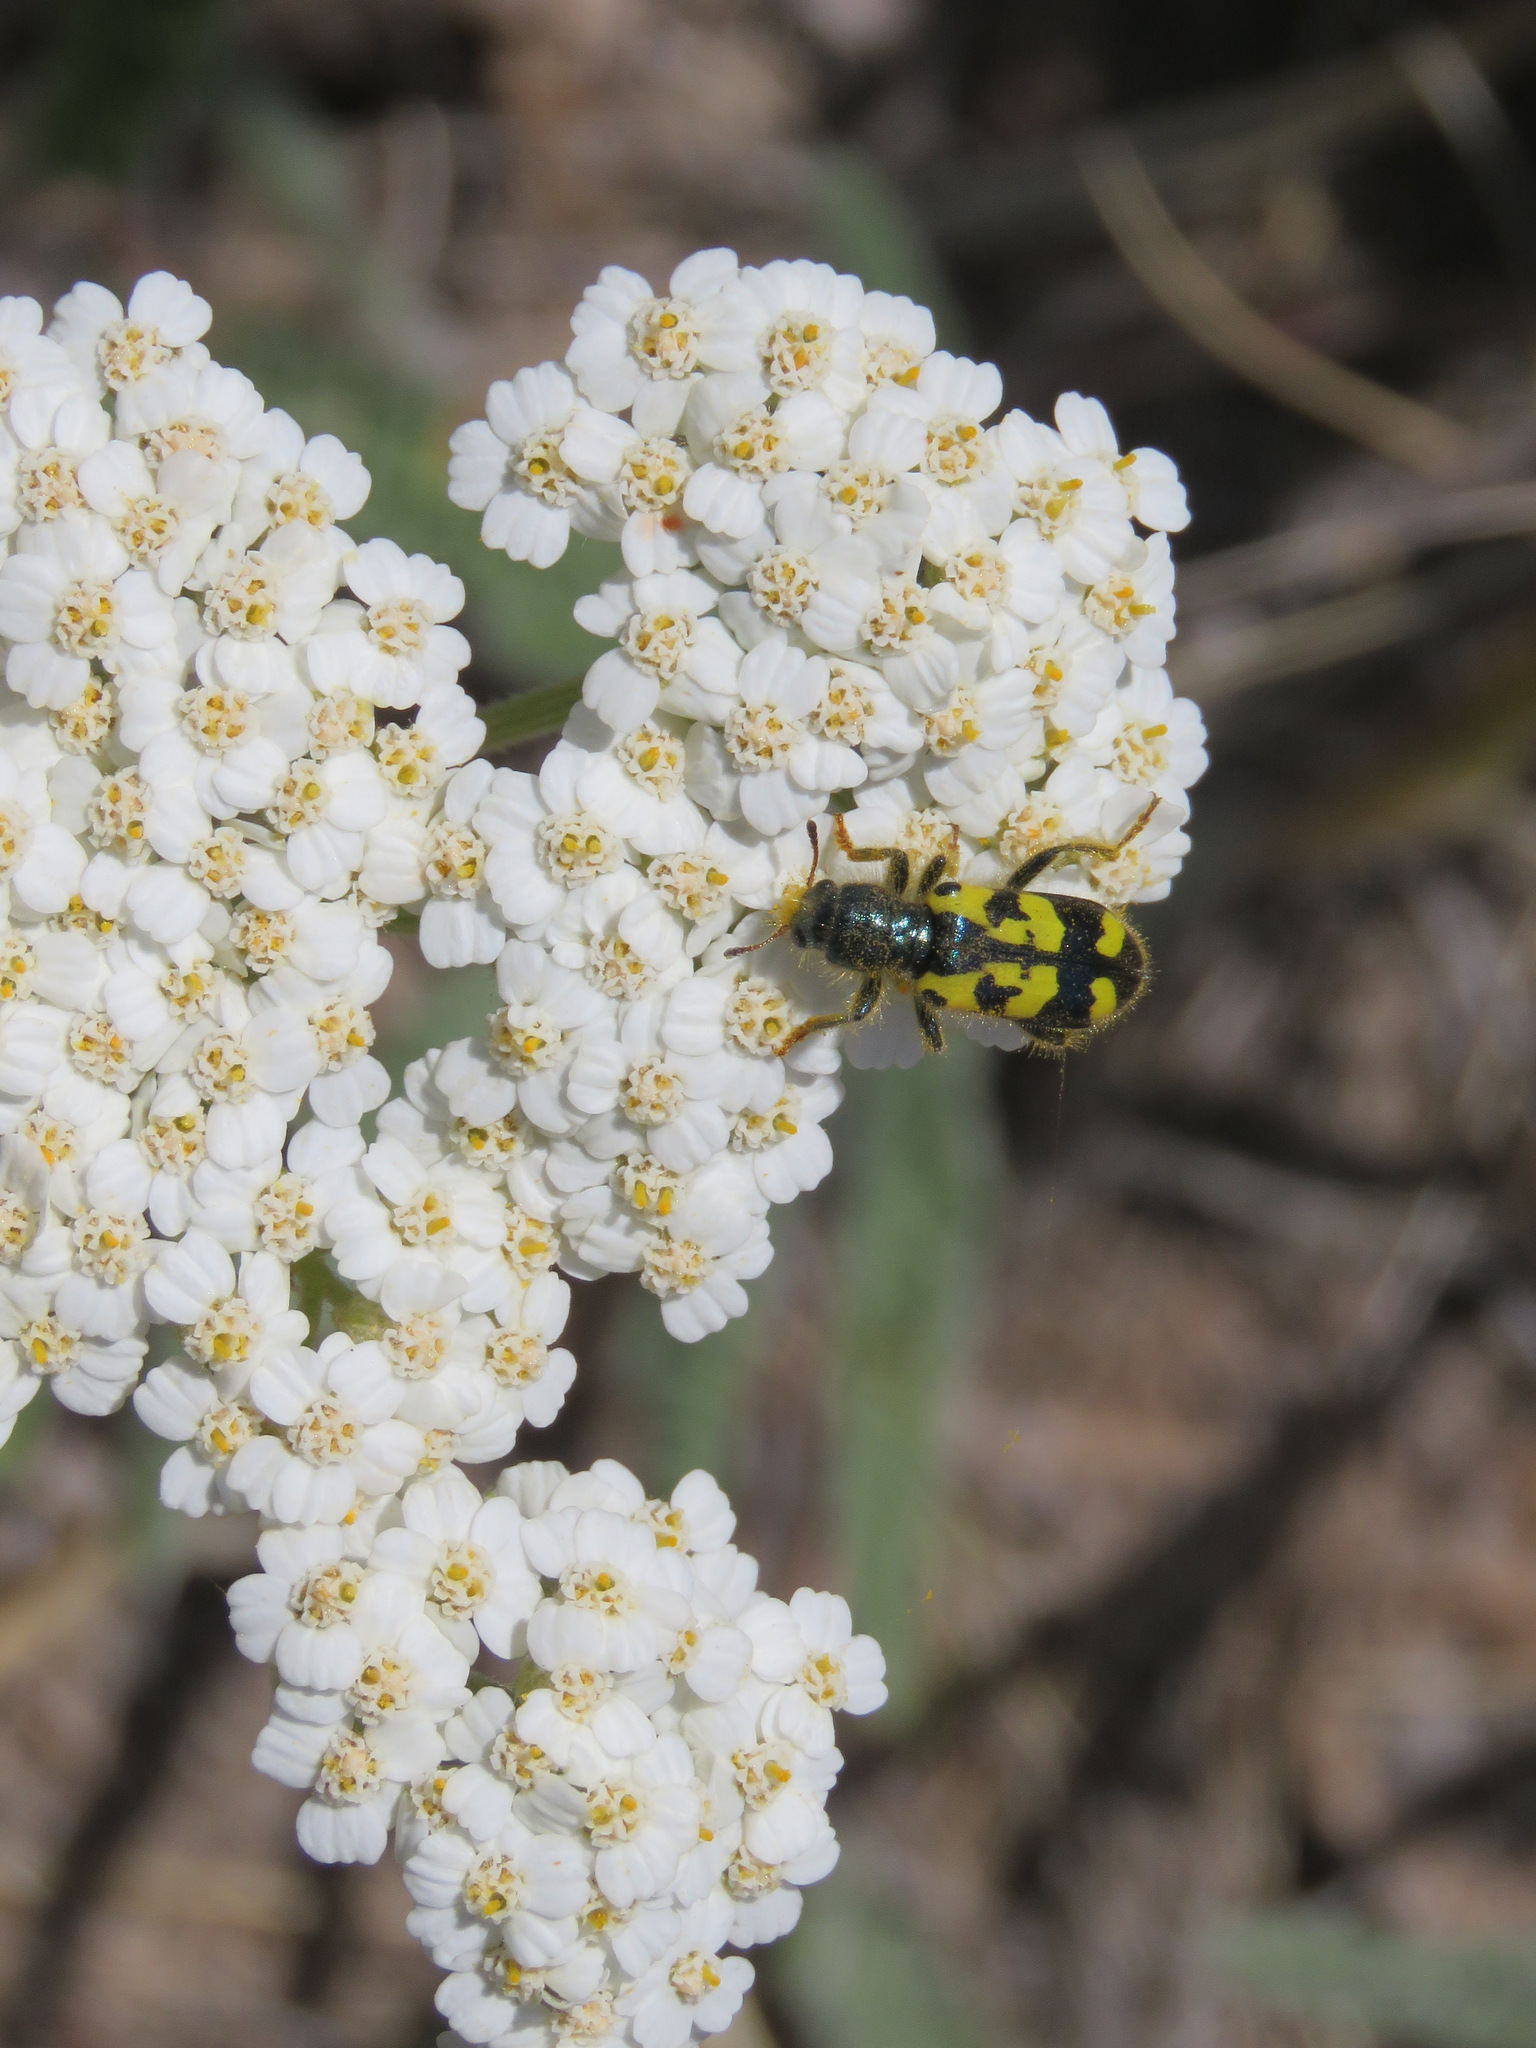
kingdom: Animalia
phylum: Arthropoda
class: Insecta
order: Coleoptera
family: Cleridae
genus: Trichodes
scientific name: Trichodes ornatus
